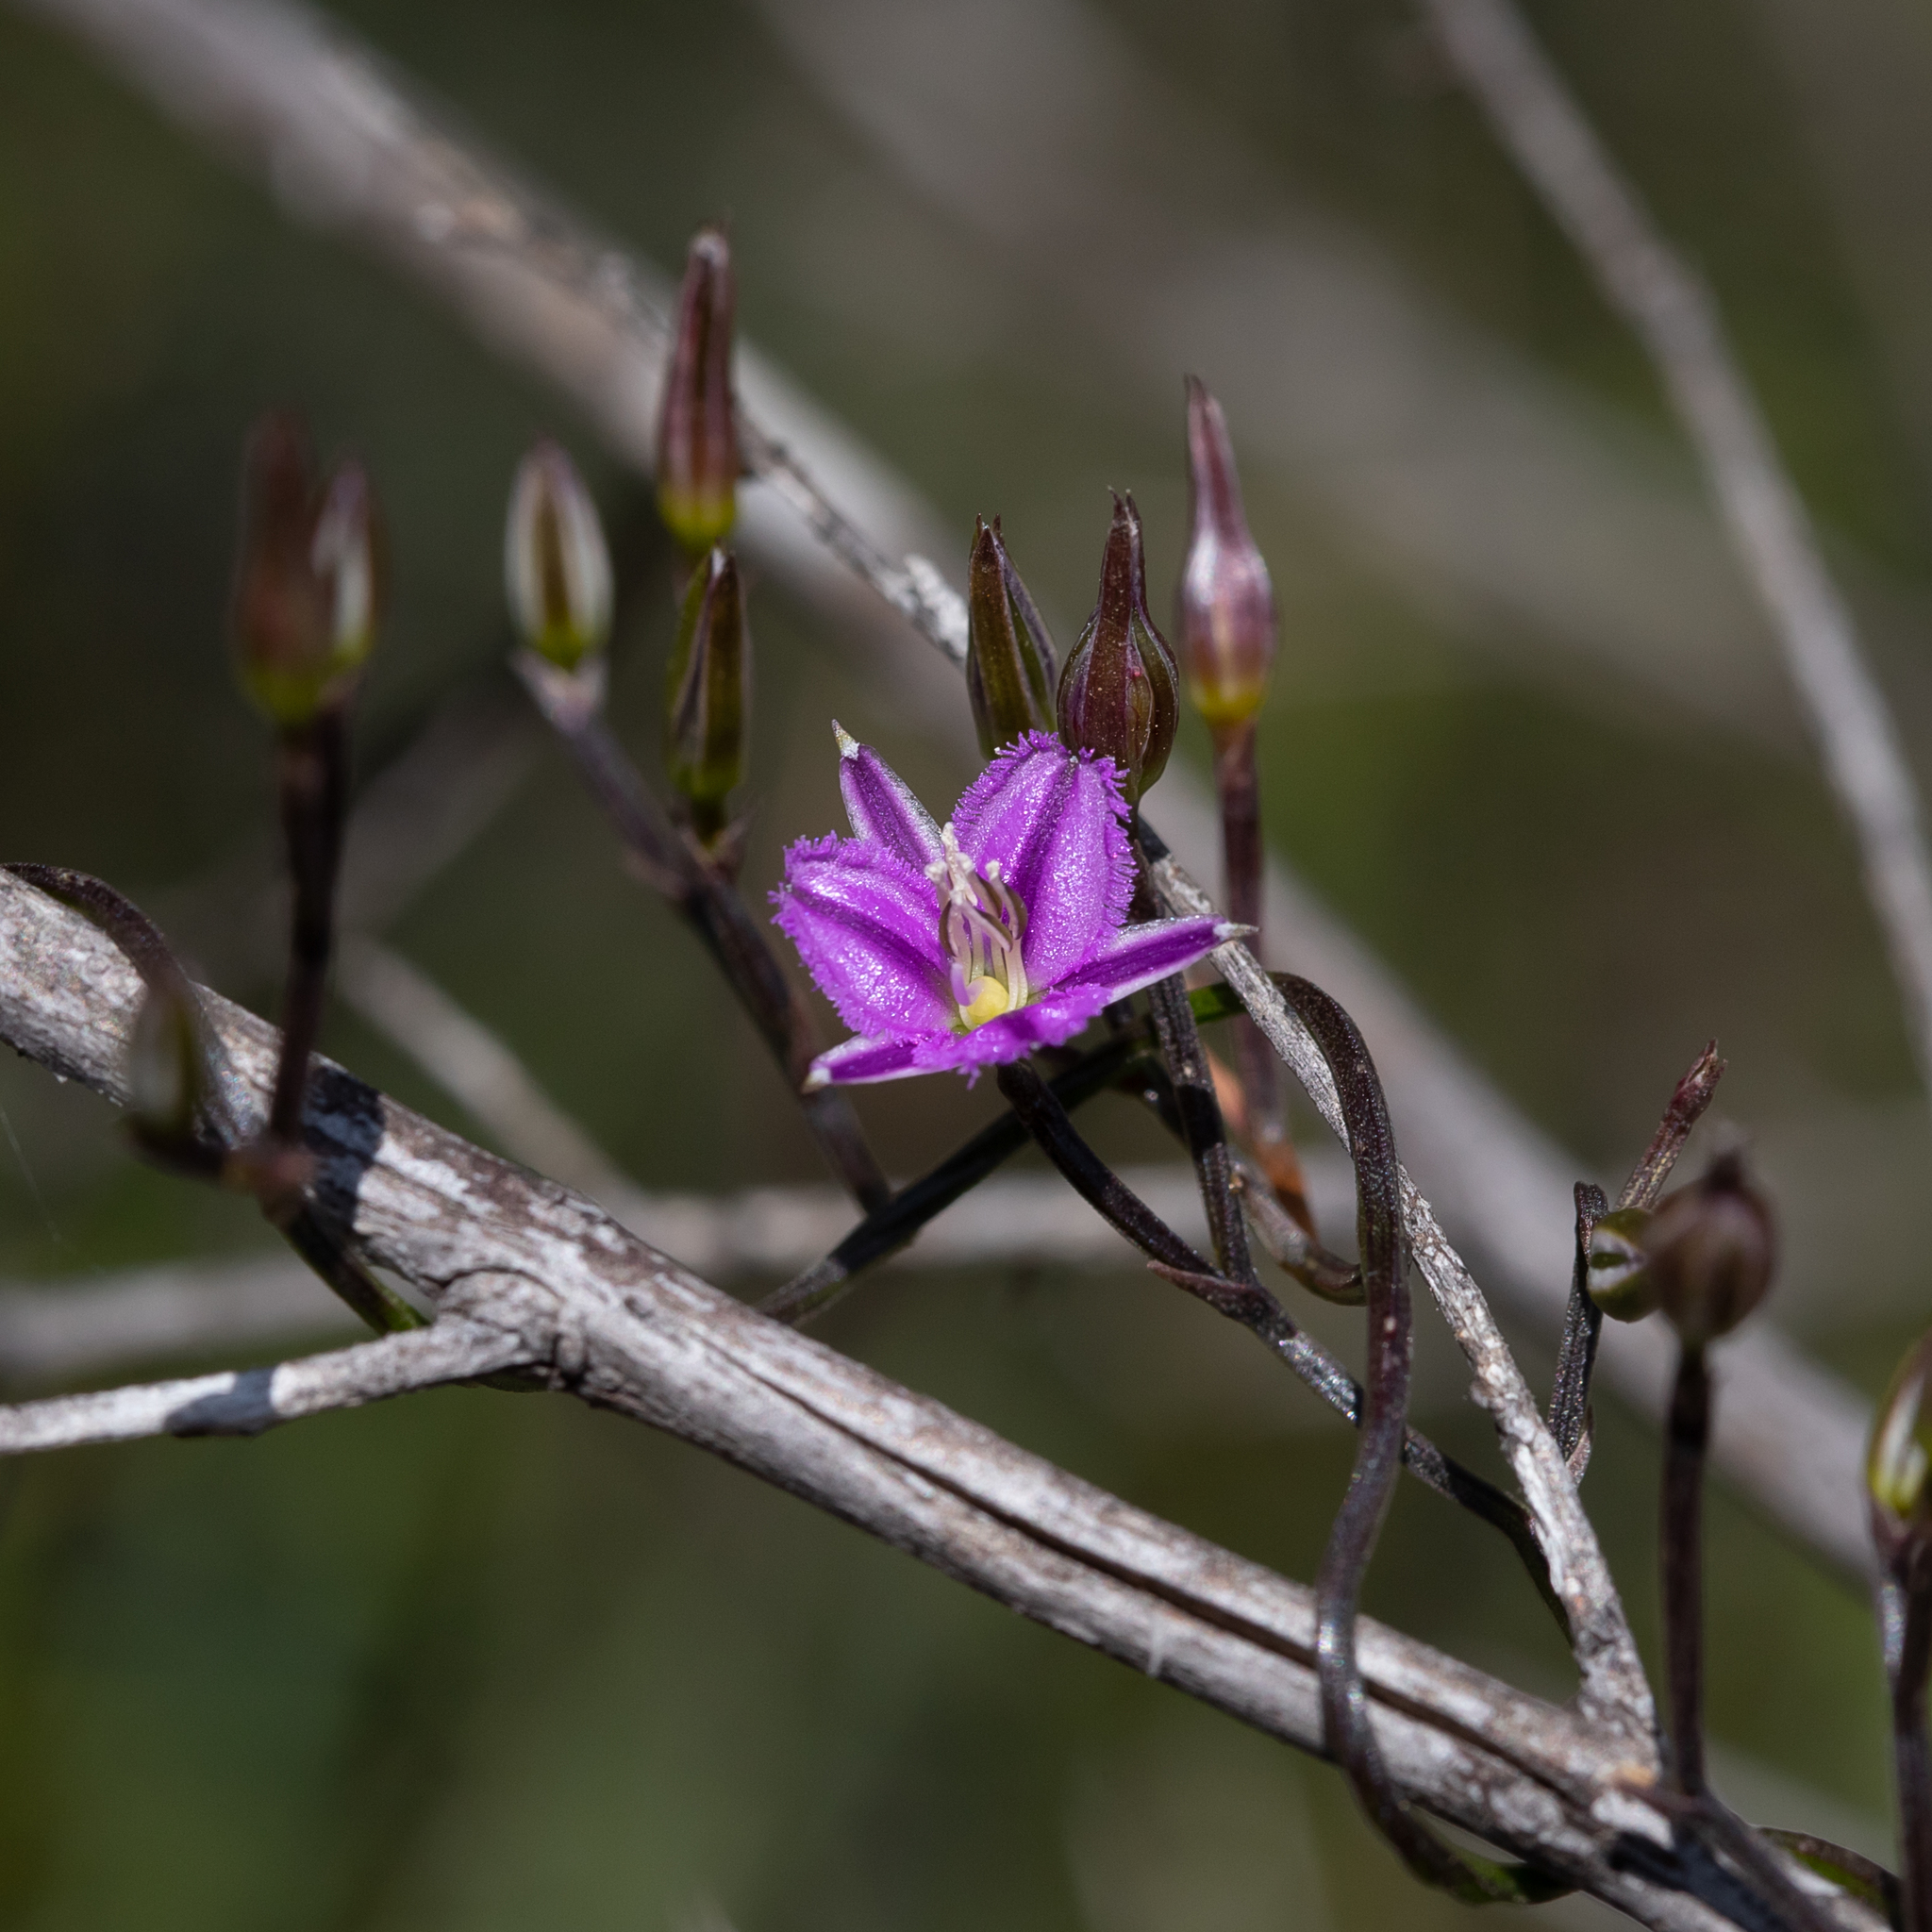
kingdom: Plantae
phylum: Tracheophyta
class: Liliopsida
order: Asparagales
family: Asparagaceae
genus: Thysanotus
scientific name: Thysanotus patersonii
